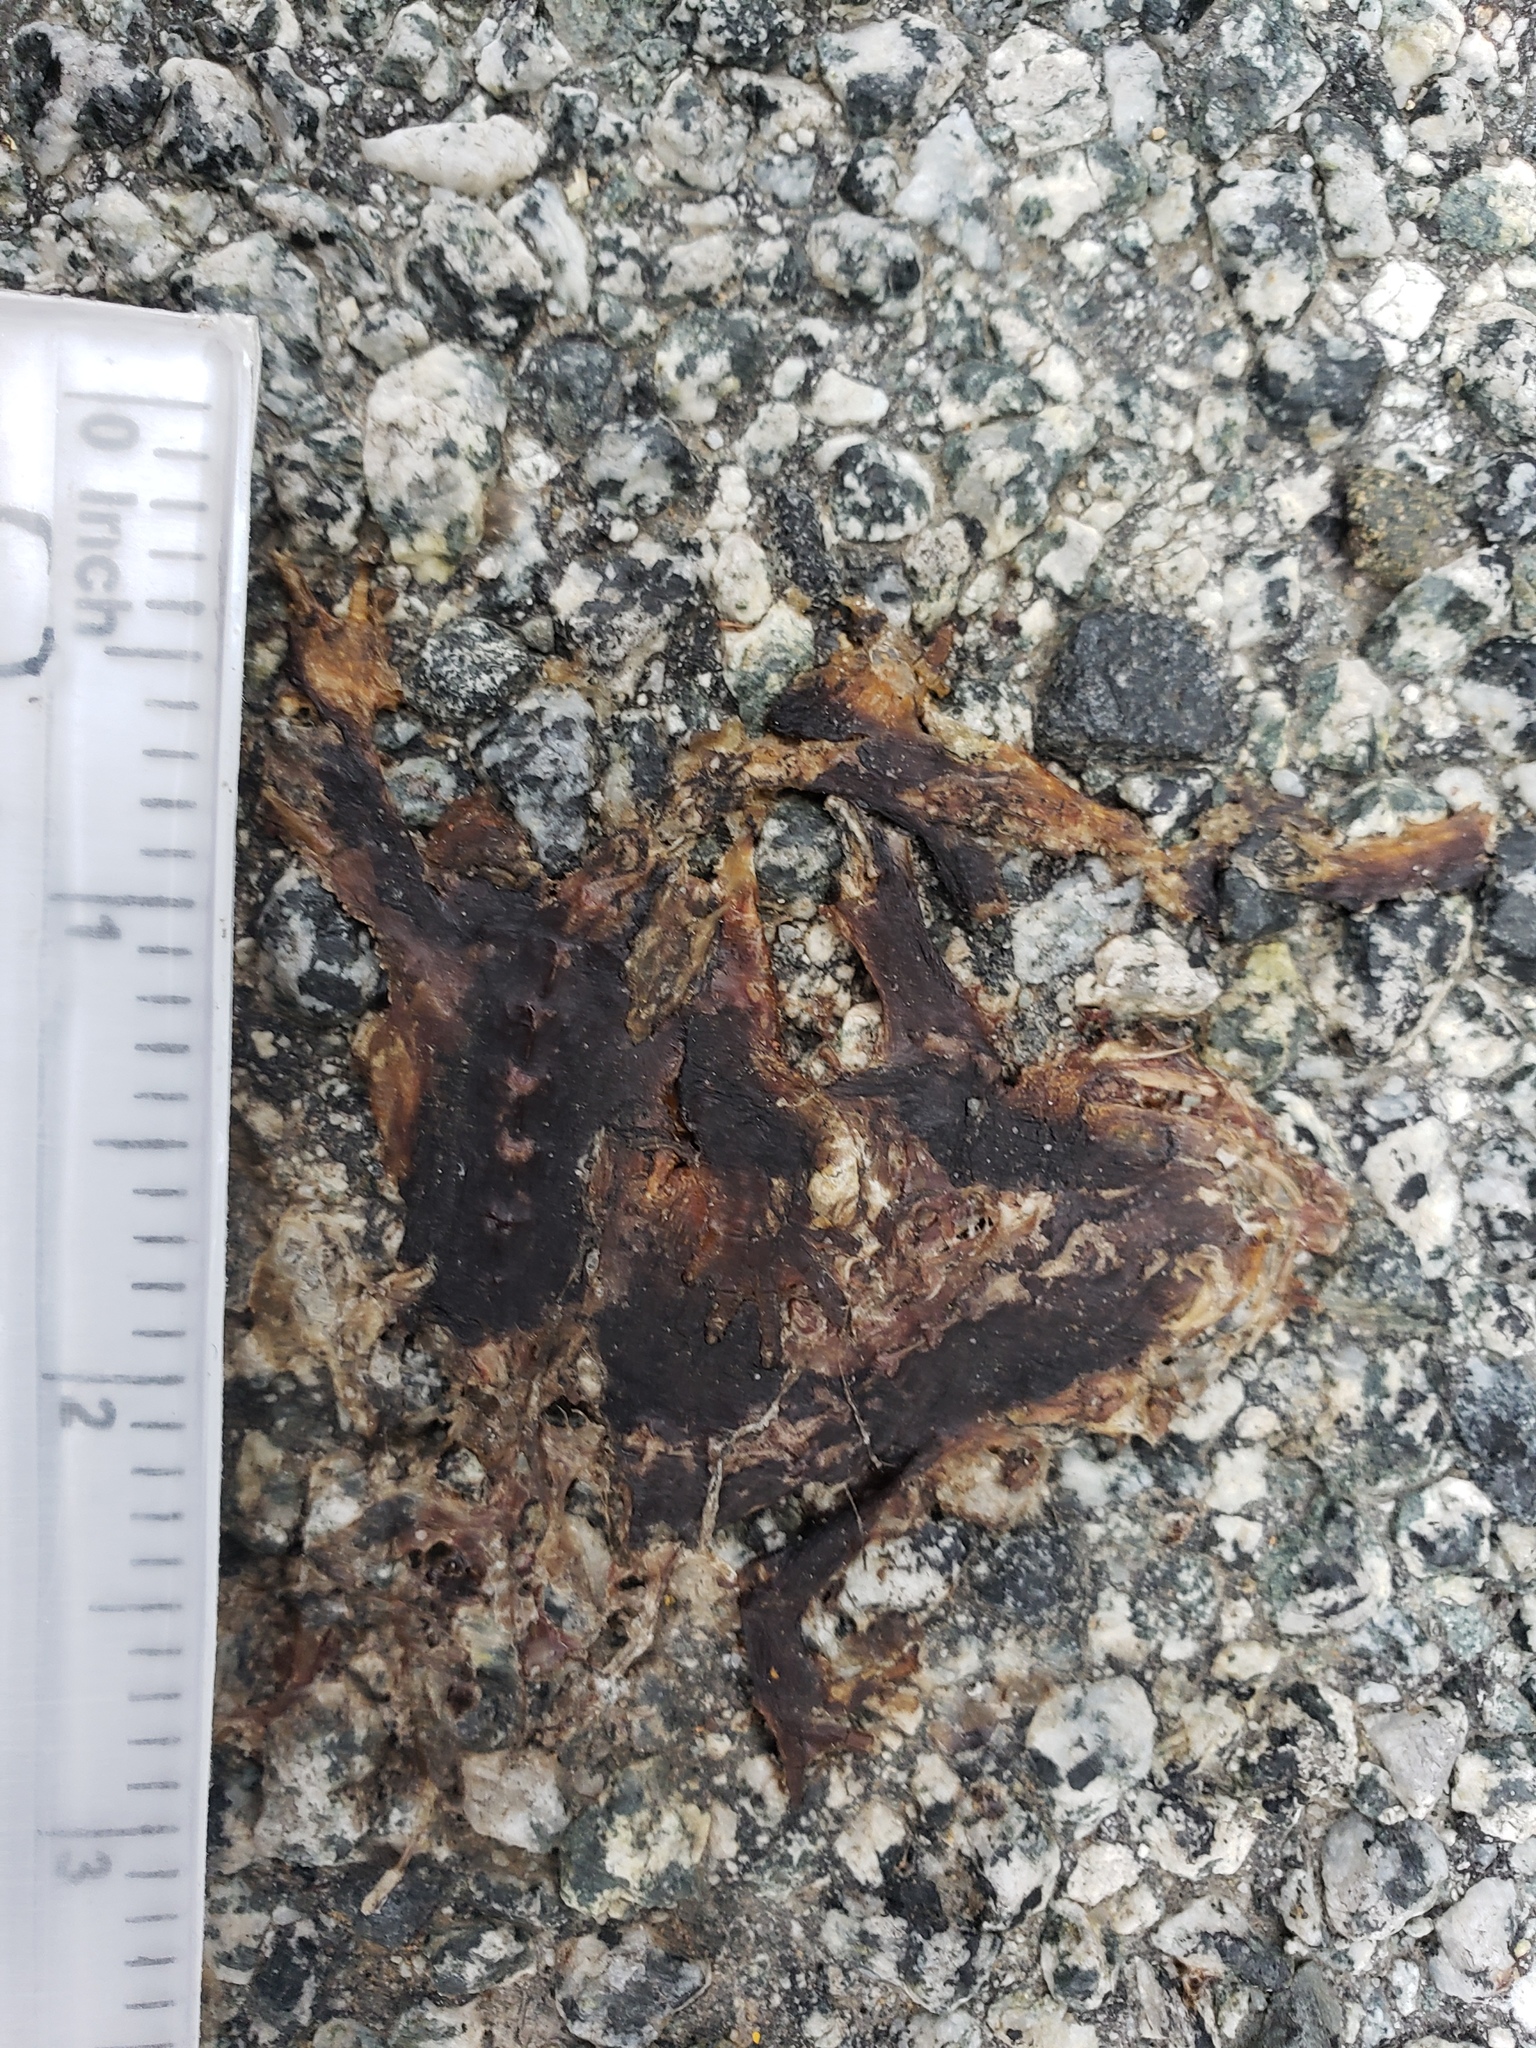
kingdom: Animalia
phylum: Chordata
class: Amphibia
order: Caudata
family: Salamandridae
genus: Taricha
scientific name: Taricha
